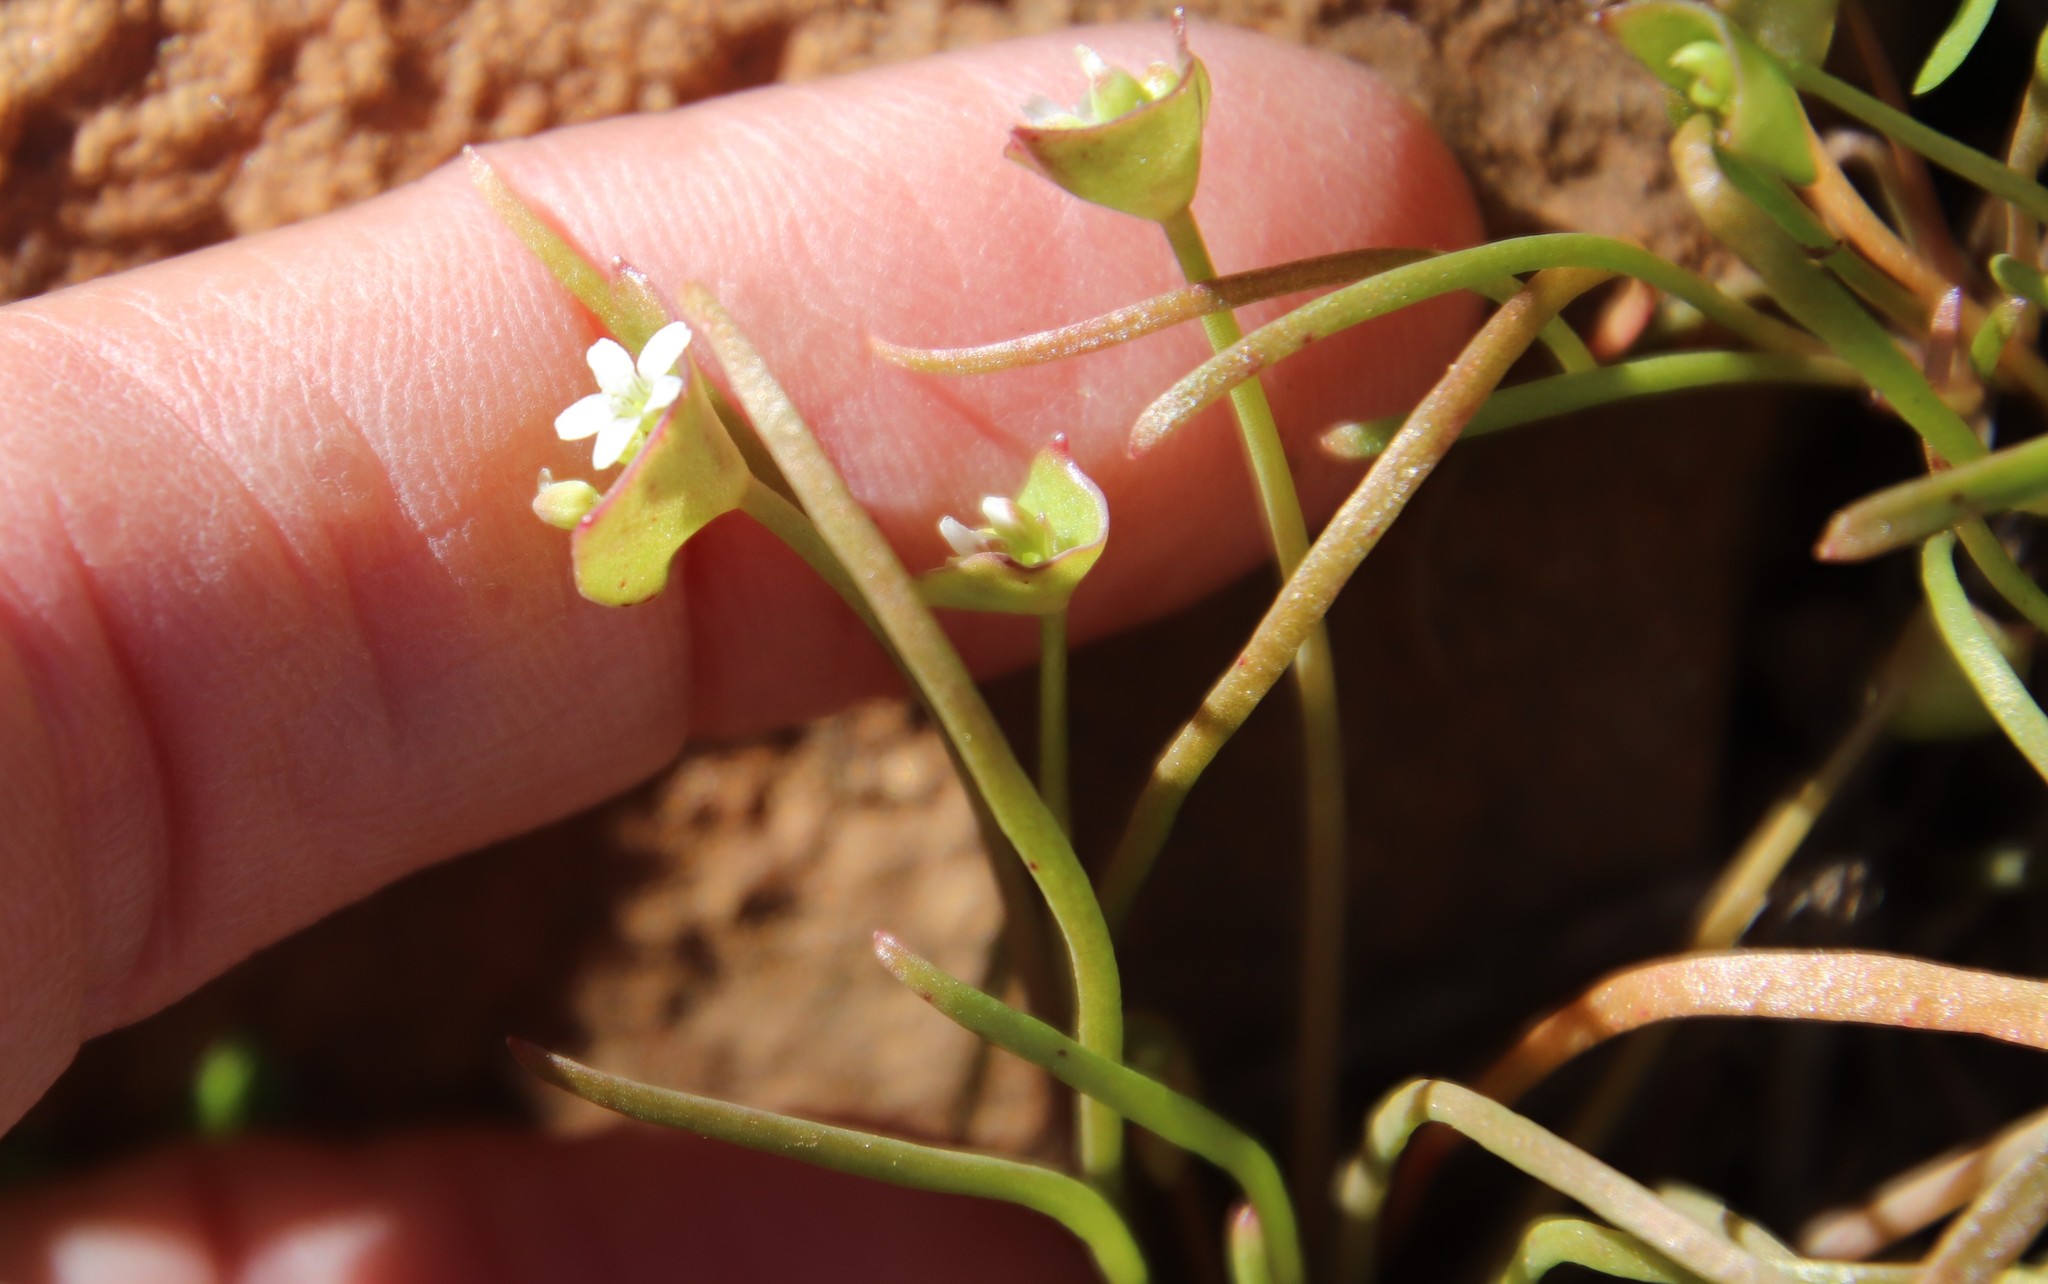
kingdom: Plantae
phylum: Tracheophyta
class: Magnoliopsida
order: Caryophyllales
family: Montiaceae
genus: Claytonia
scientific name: Claytonia parviflora
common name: Indian-lettuce
